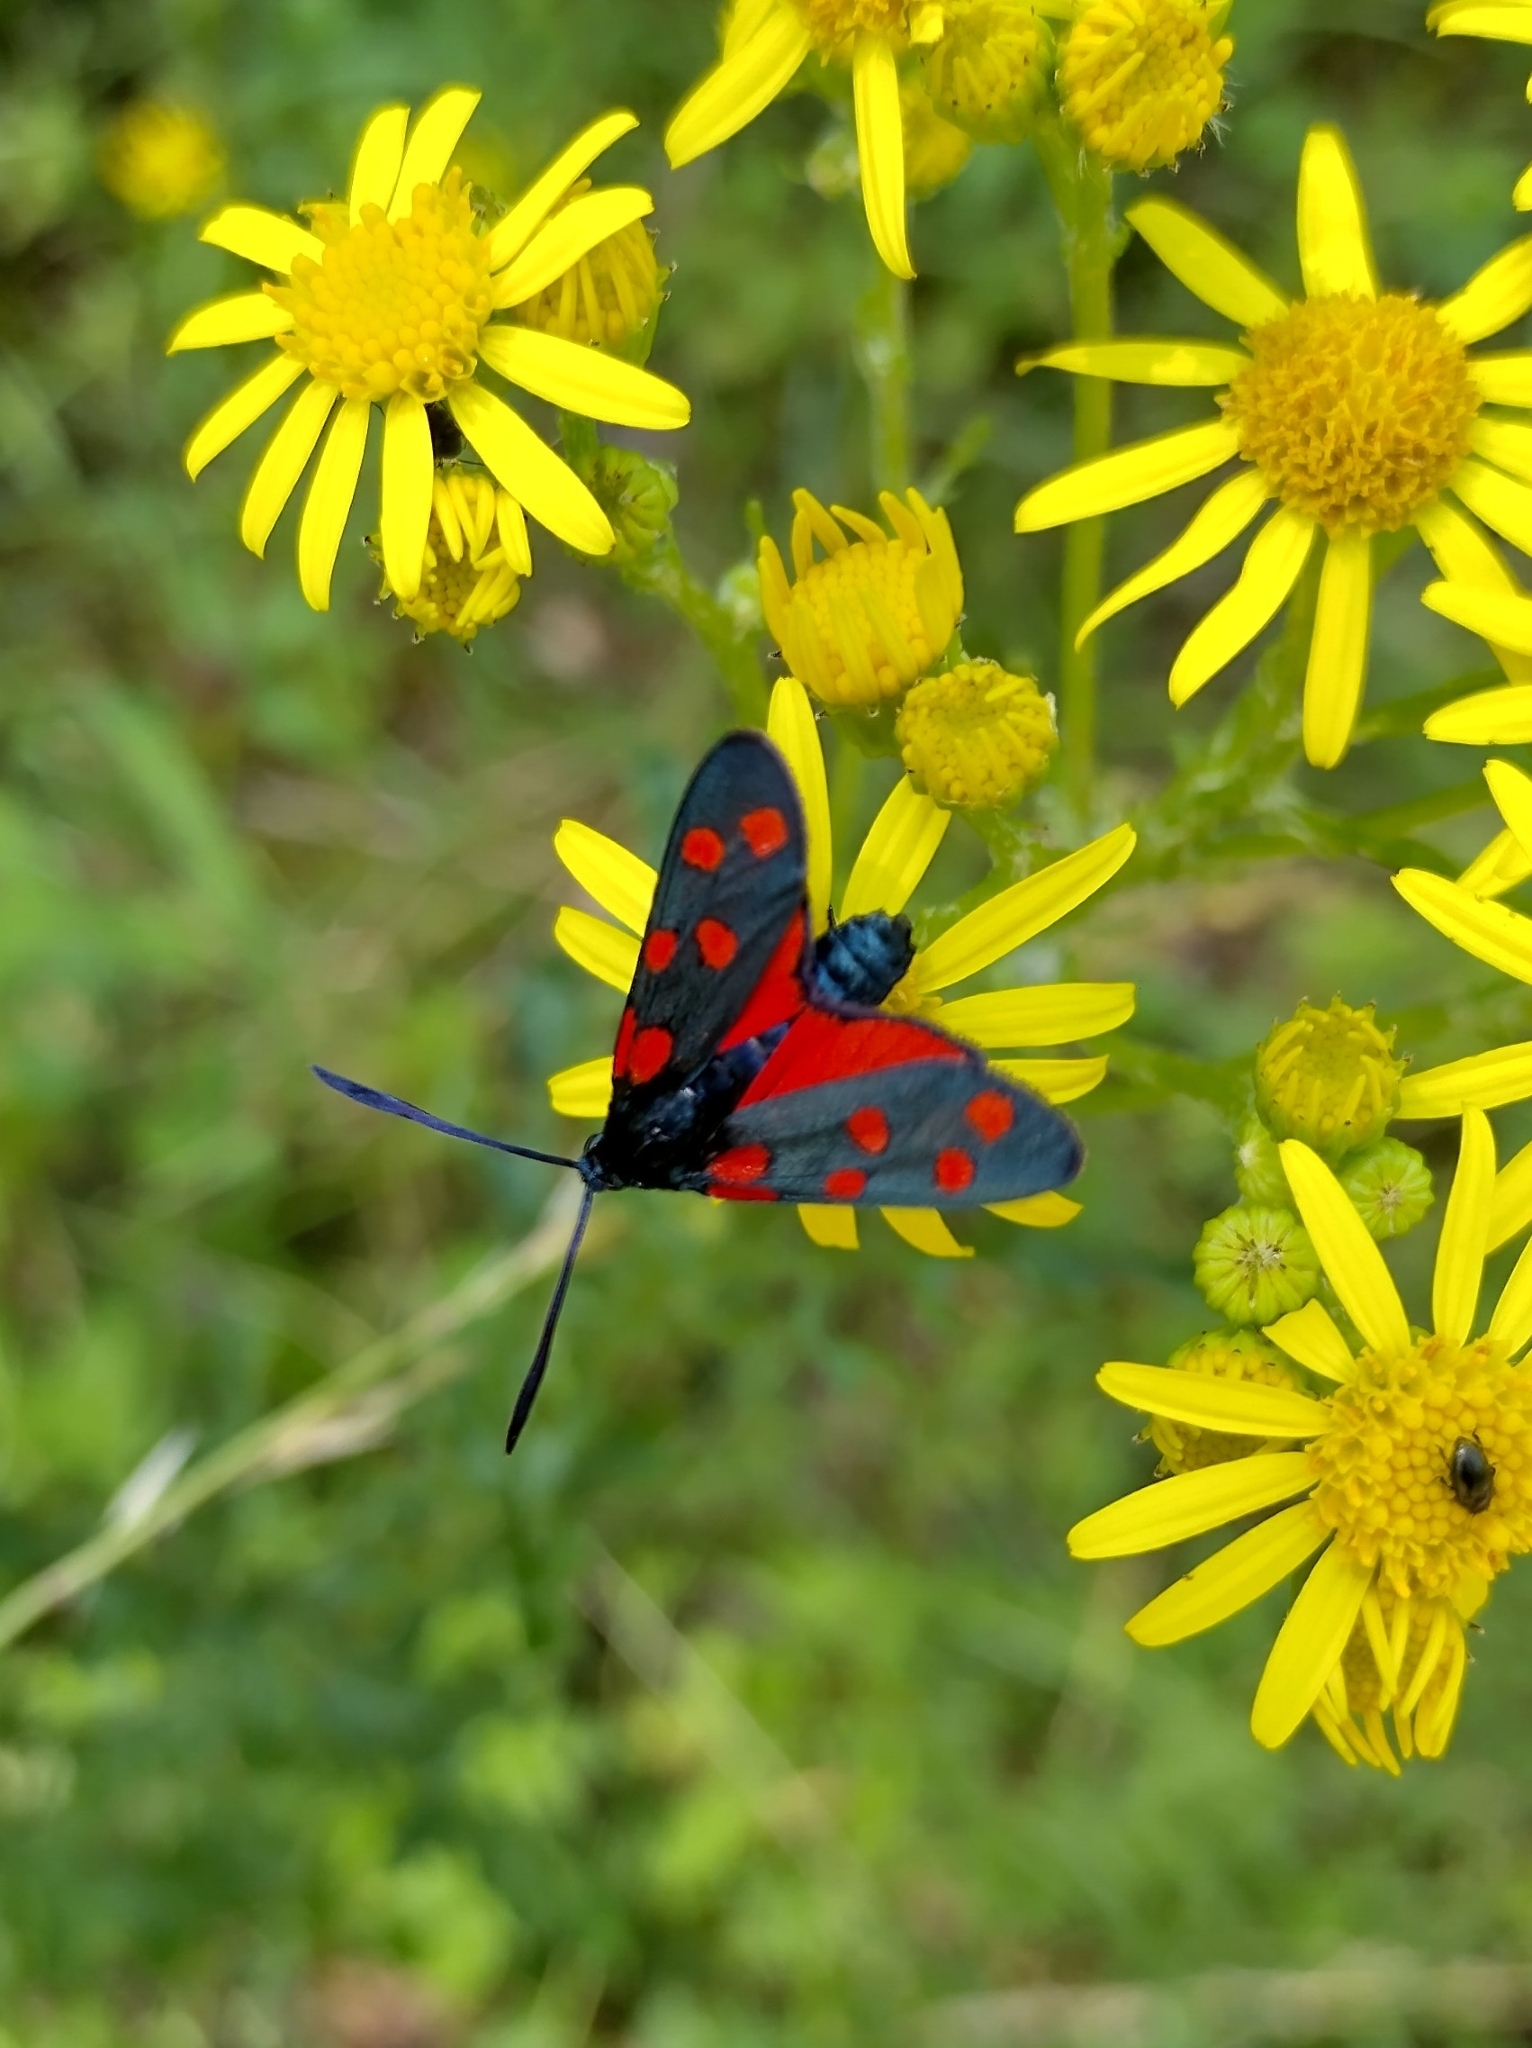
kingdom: Animalia
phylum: Arthropoda
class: Insecta
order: Lepidoptera
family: Zygaenidae
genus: Zygaena
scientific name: Zygaena transalpina
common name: Southern six spot burnet
